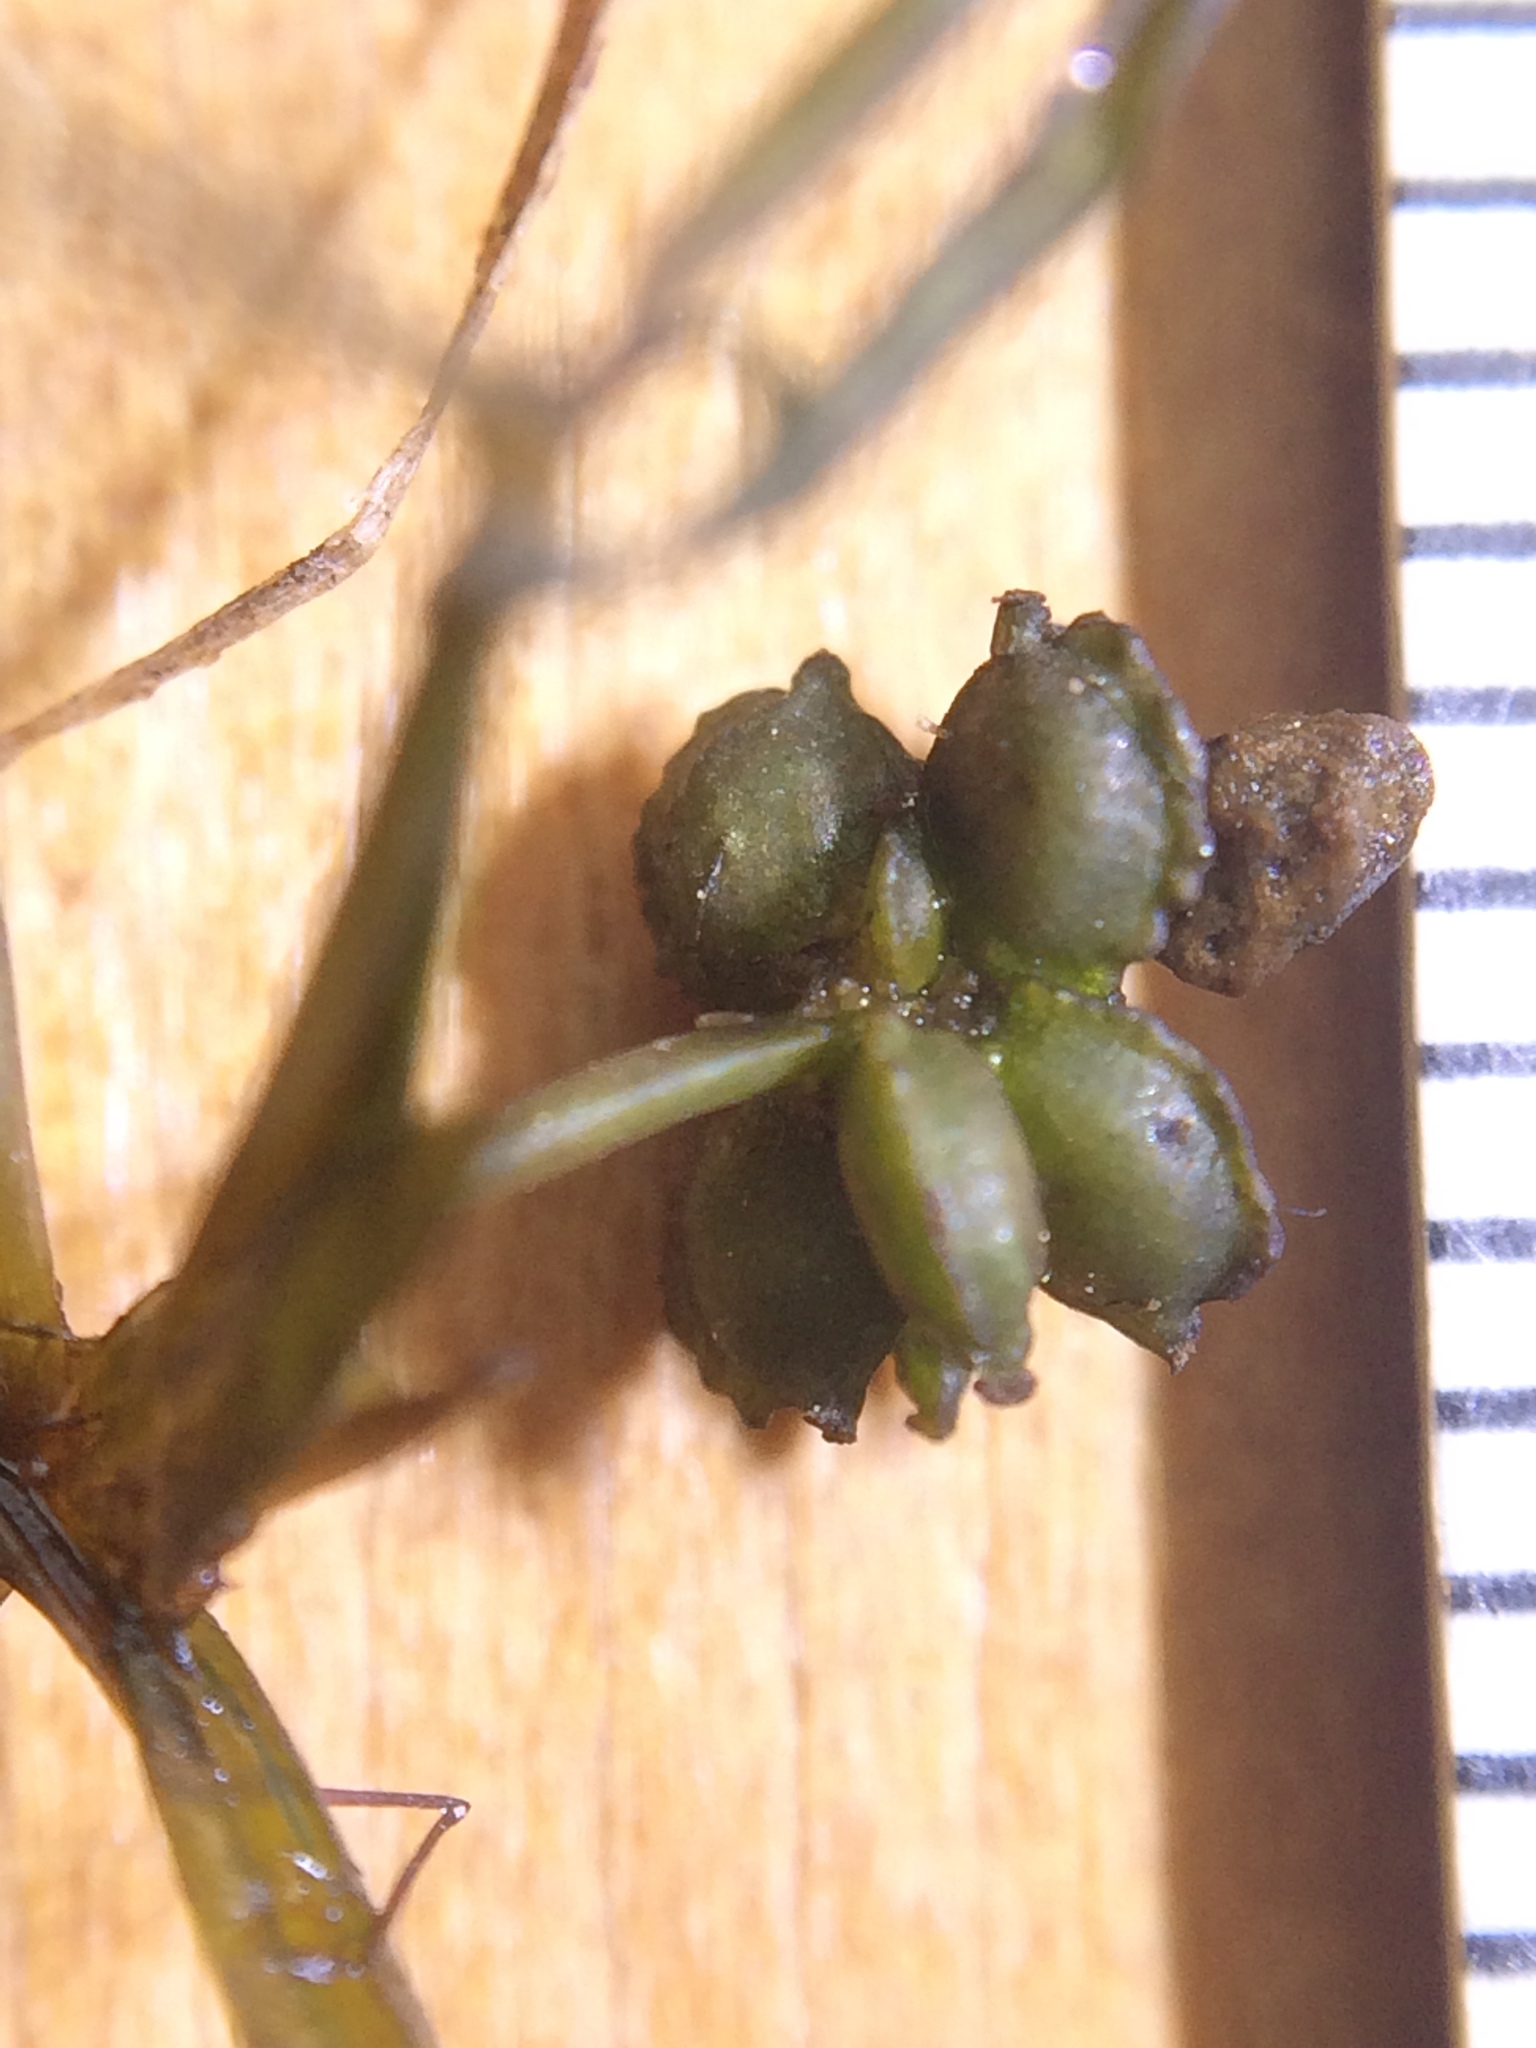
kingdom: Plantae
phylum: Tracheophyta
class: Liliopsida
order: Alismatales
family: Potamogetonaceae
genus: Potamogeton
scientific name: Potamogeton foliosus
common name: Leafy pondweed
